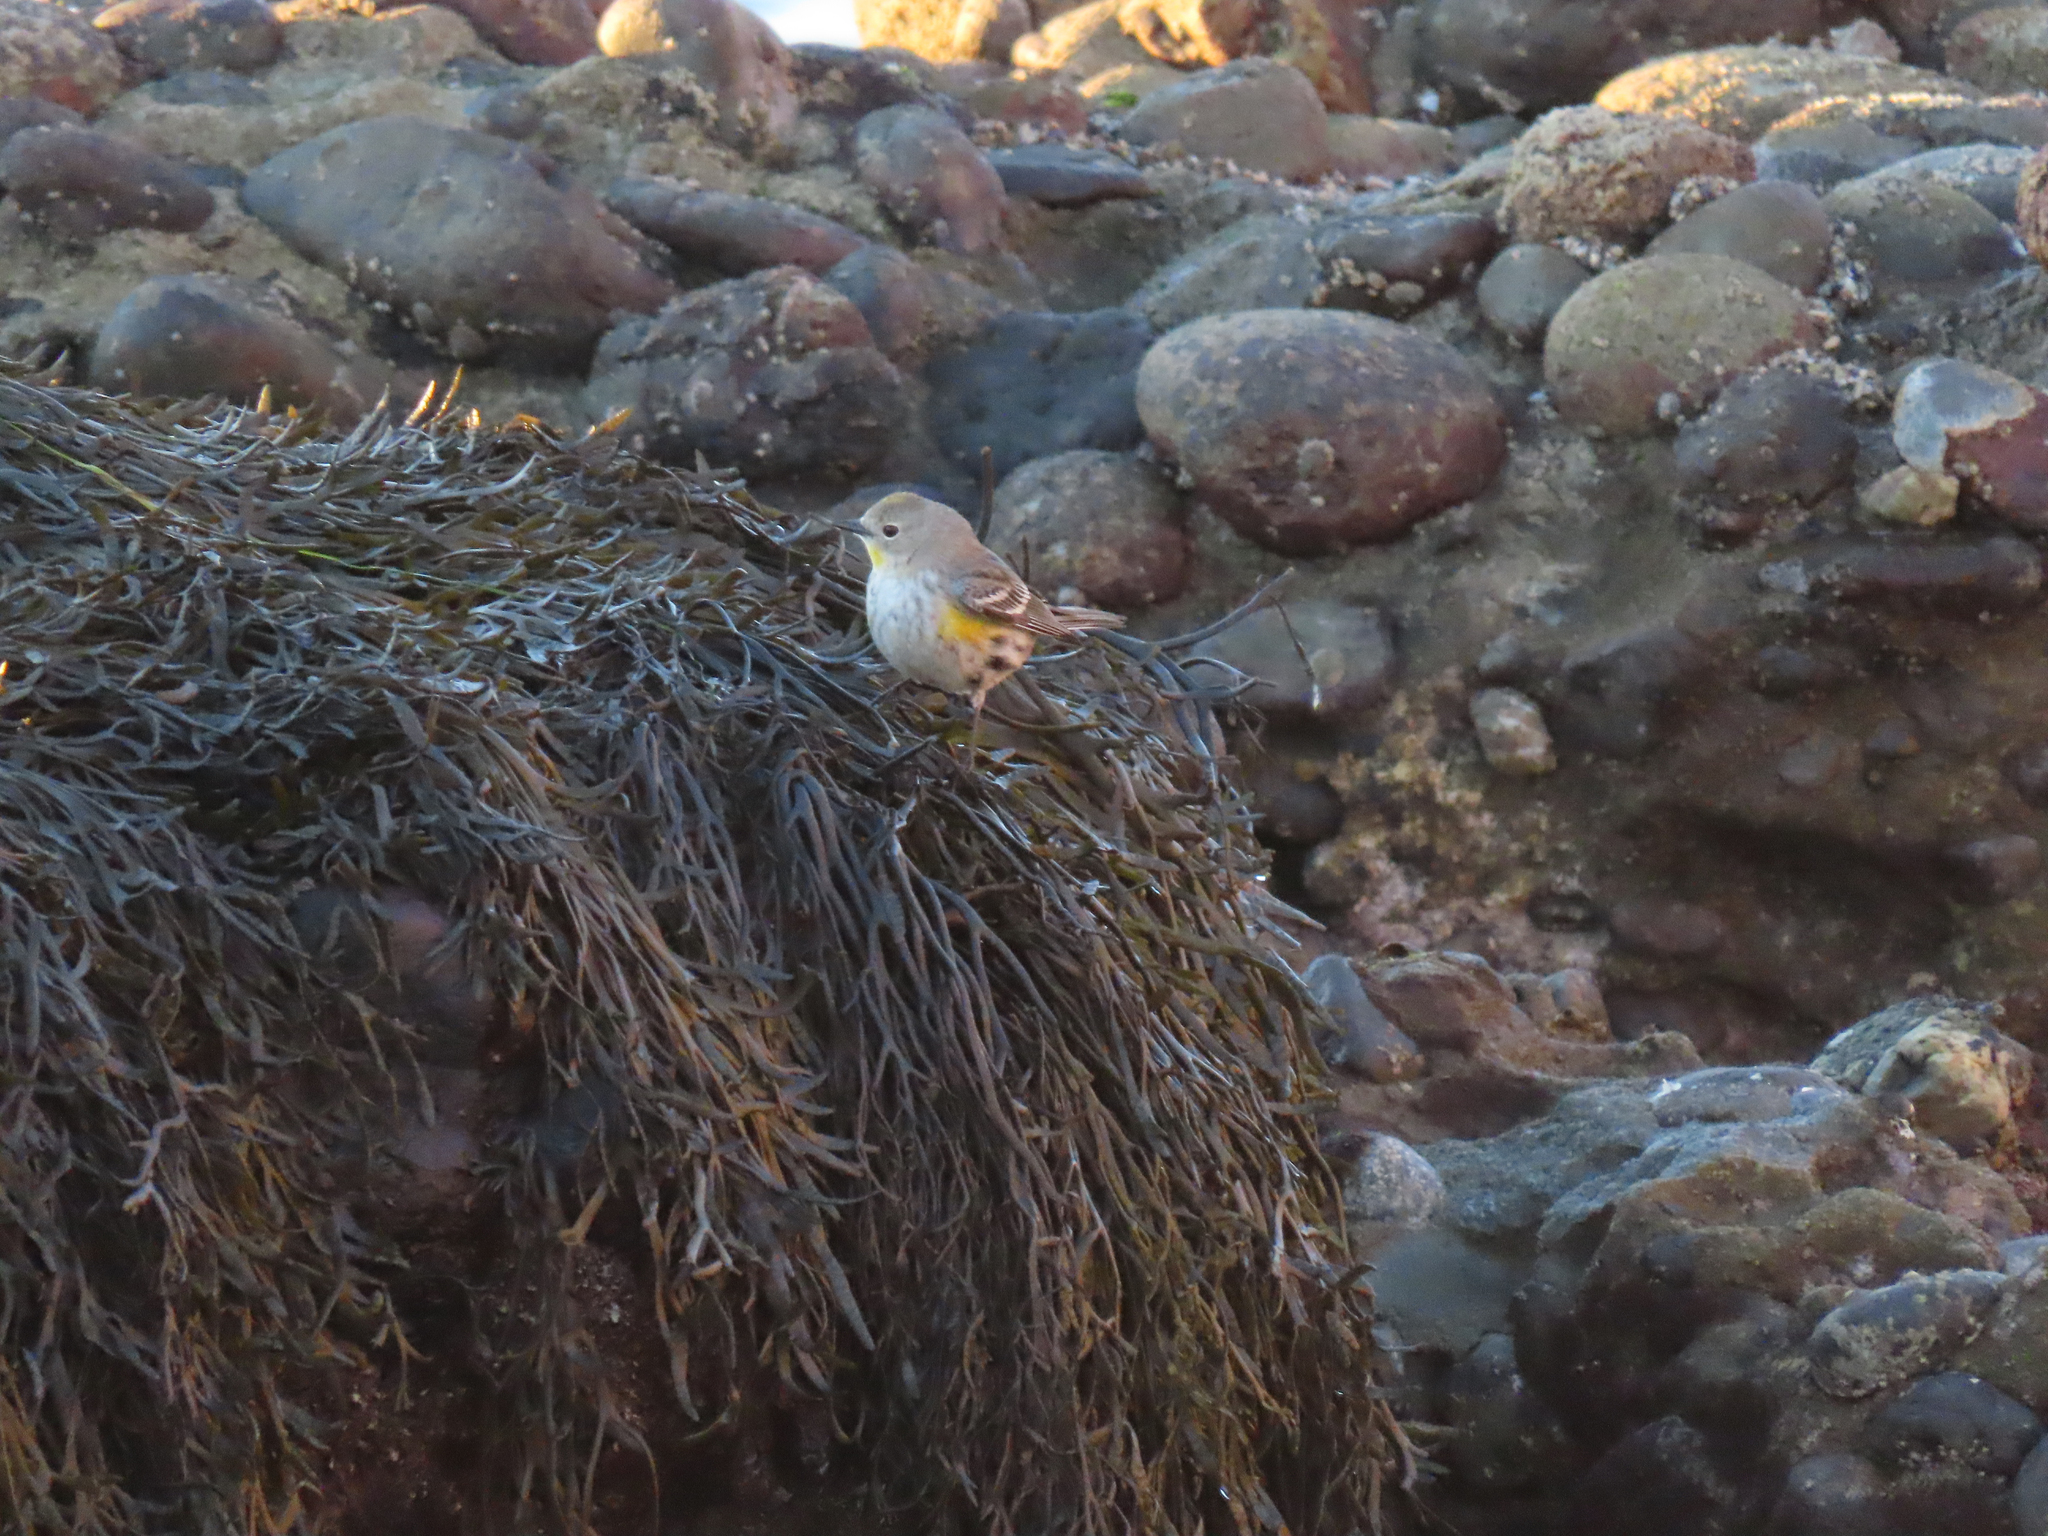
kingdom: Animalia
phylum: Chordata
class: Aves
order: Passeriformes
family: Parulidae
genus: Setophaga
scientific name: Setophaga auduboni
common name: Audubon's warbler
